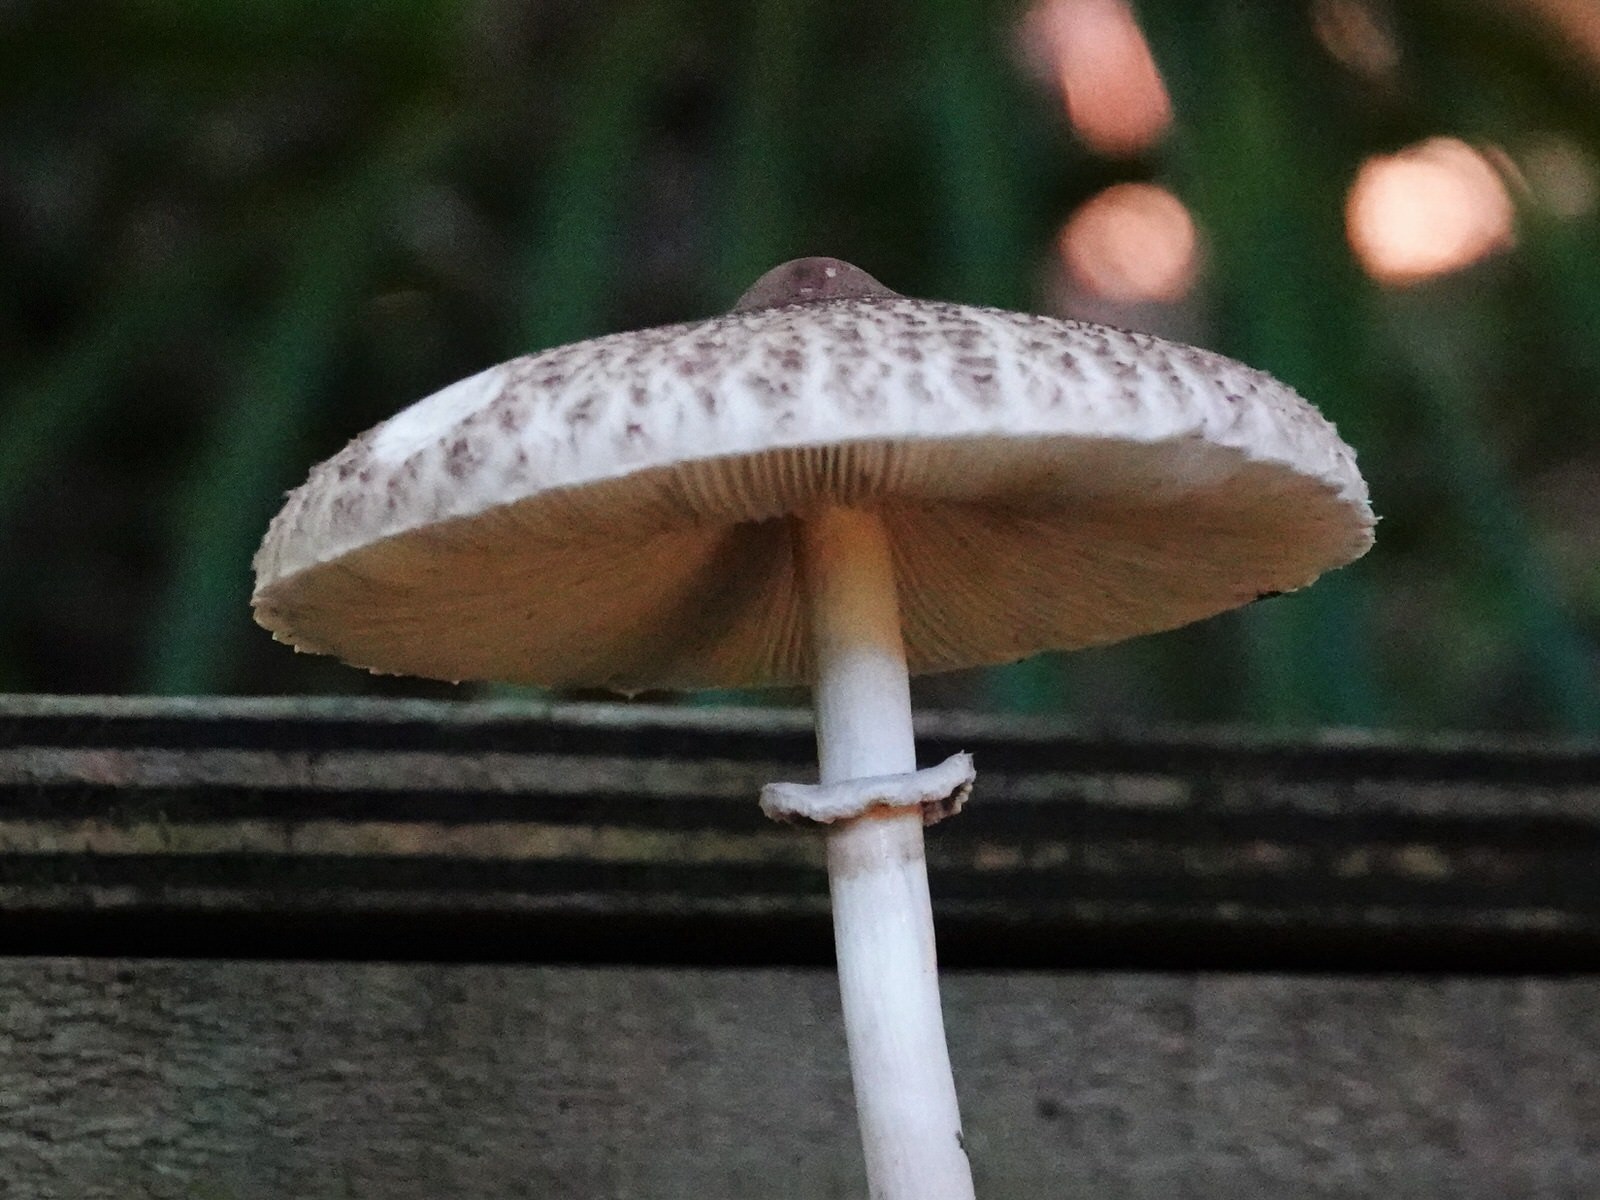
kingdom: Fungi
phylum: Basidiomycota
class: Agaricomycetes
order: Agaricales
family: Agaricaceae
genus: Macrolepiota
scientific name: Macrolepiota clelandii
